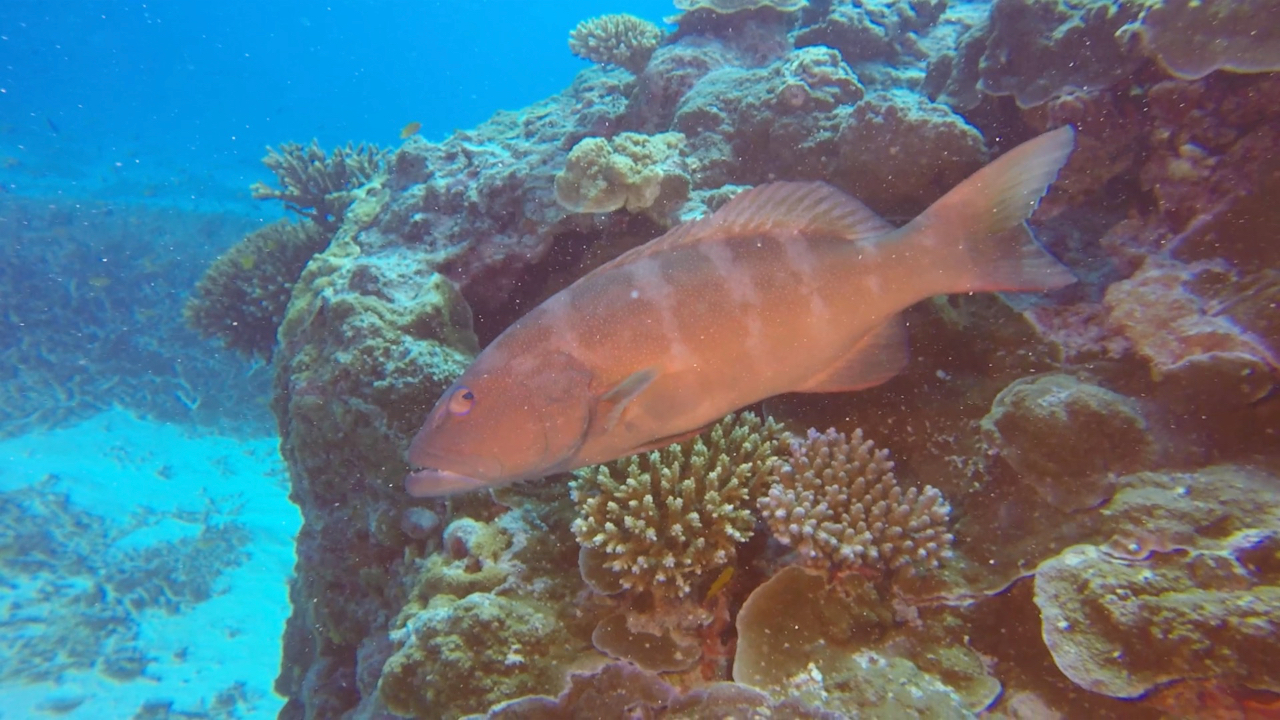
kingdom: Animalia
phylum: Chordata
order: Perciformes
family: Serranidae
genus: Plectropomus
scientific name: Plectropomus leopardus
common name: Coral trout
